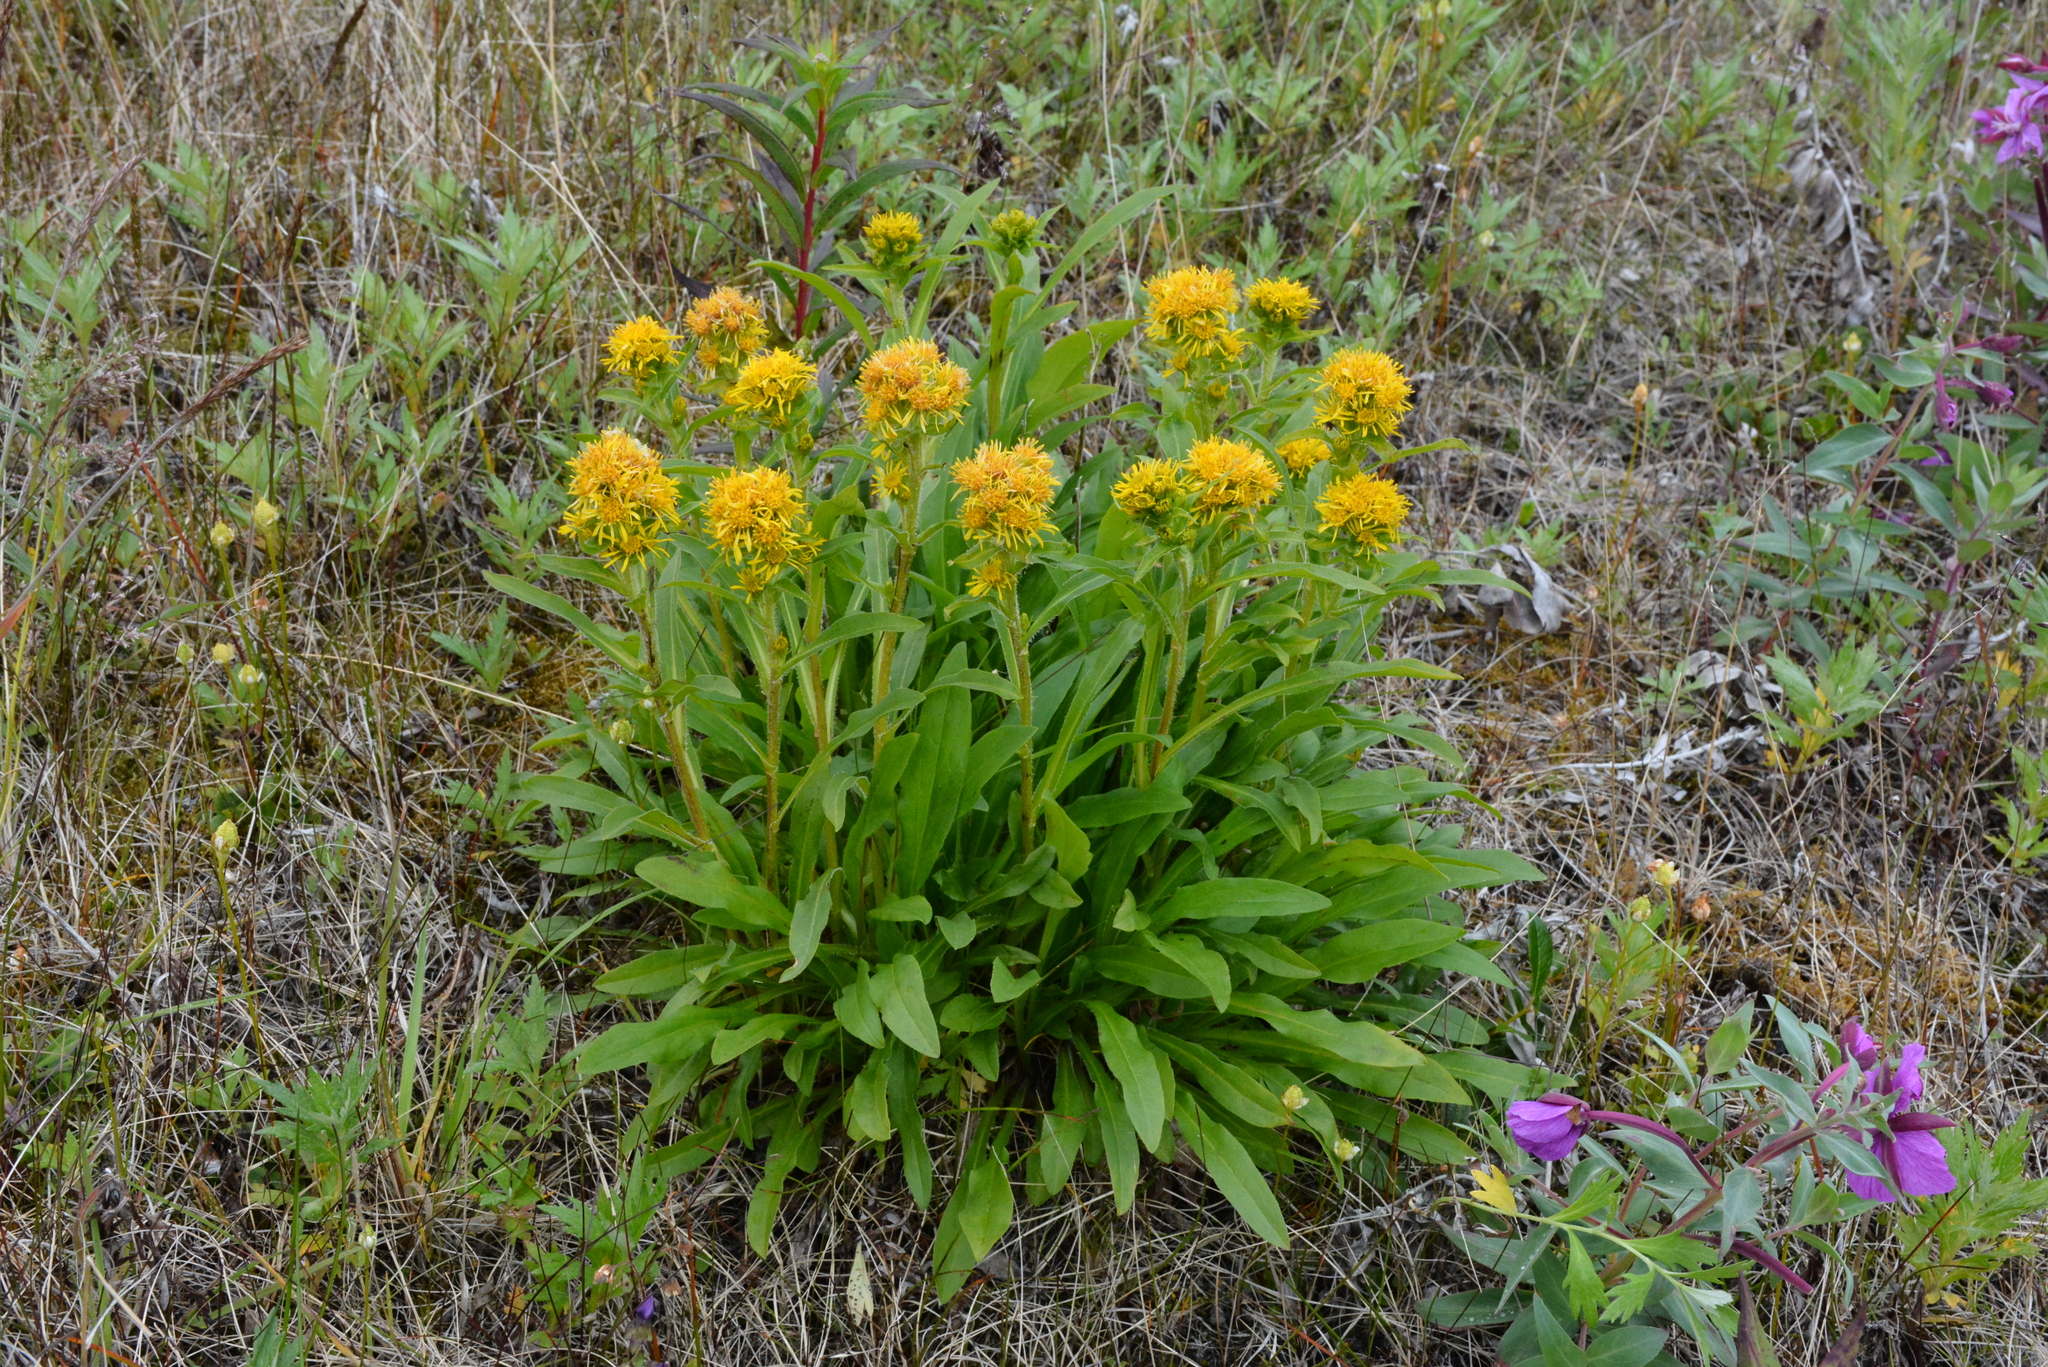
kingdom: Plantae
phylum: Tracheophyta
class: Magnoliopsida
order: Asterales
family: Asteraceae
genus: Solidago
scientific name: Solidago compacta
